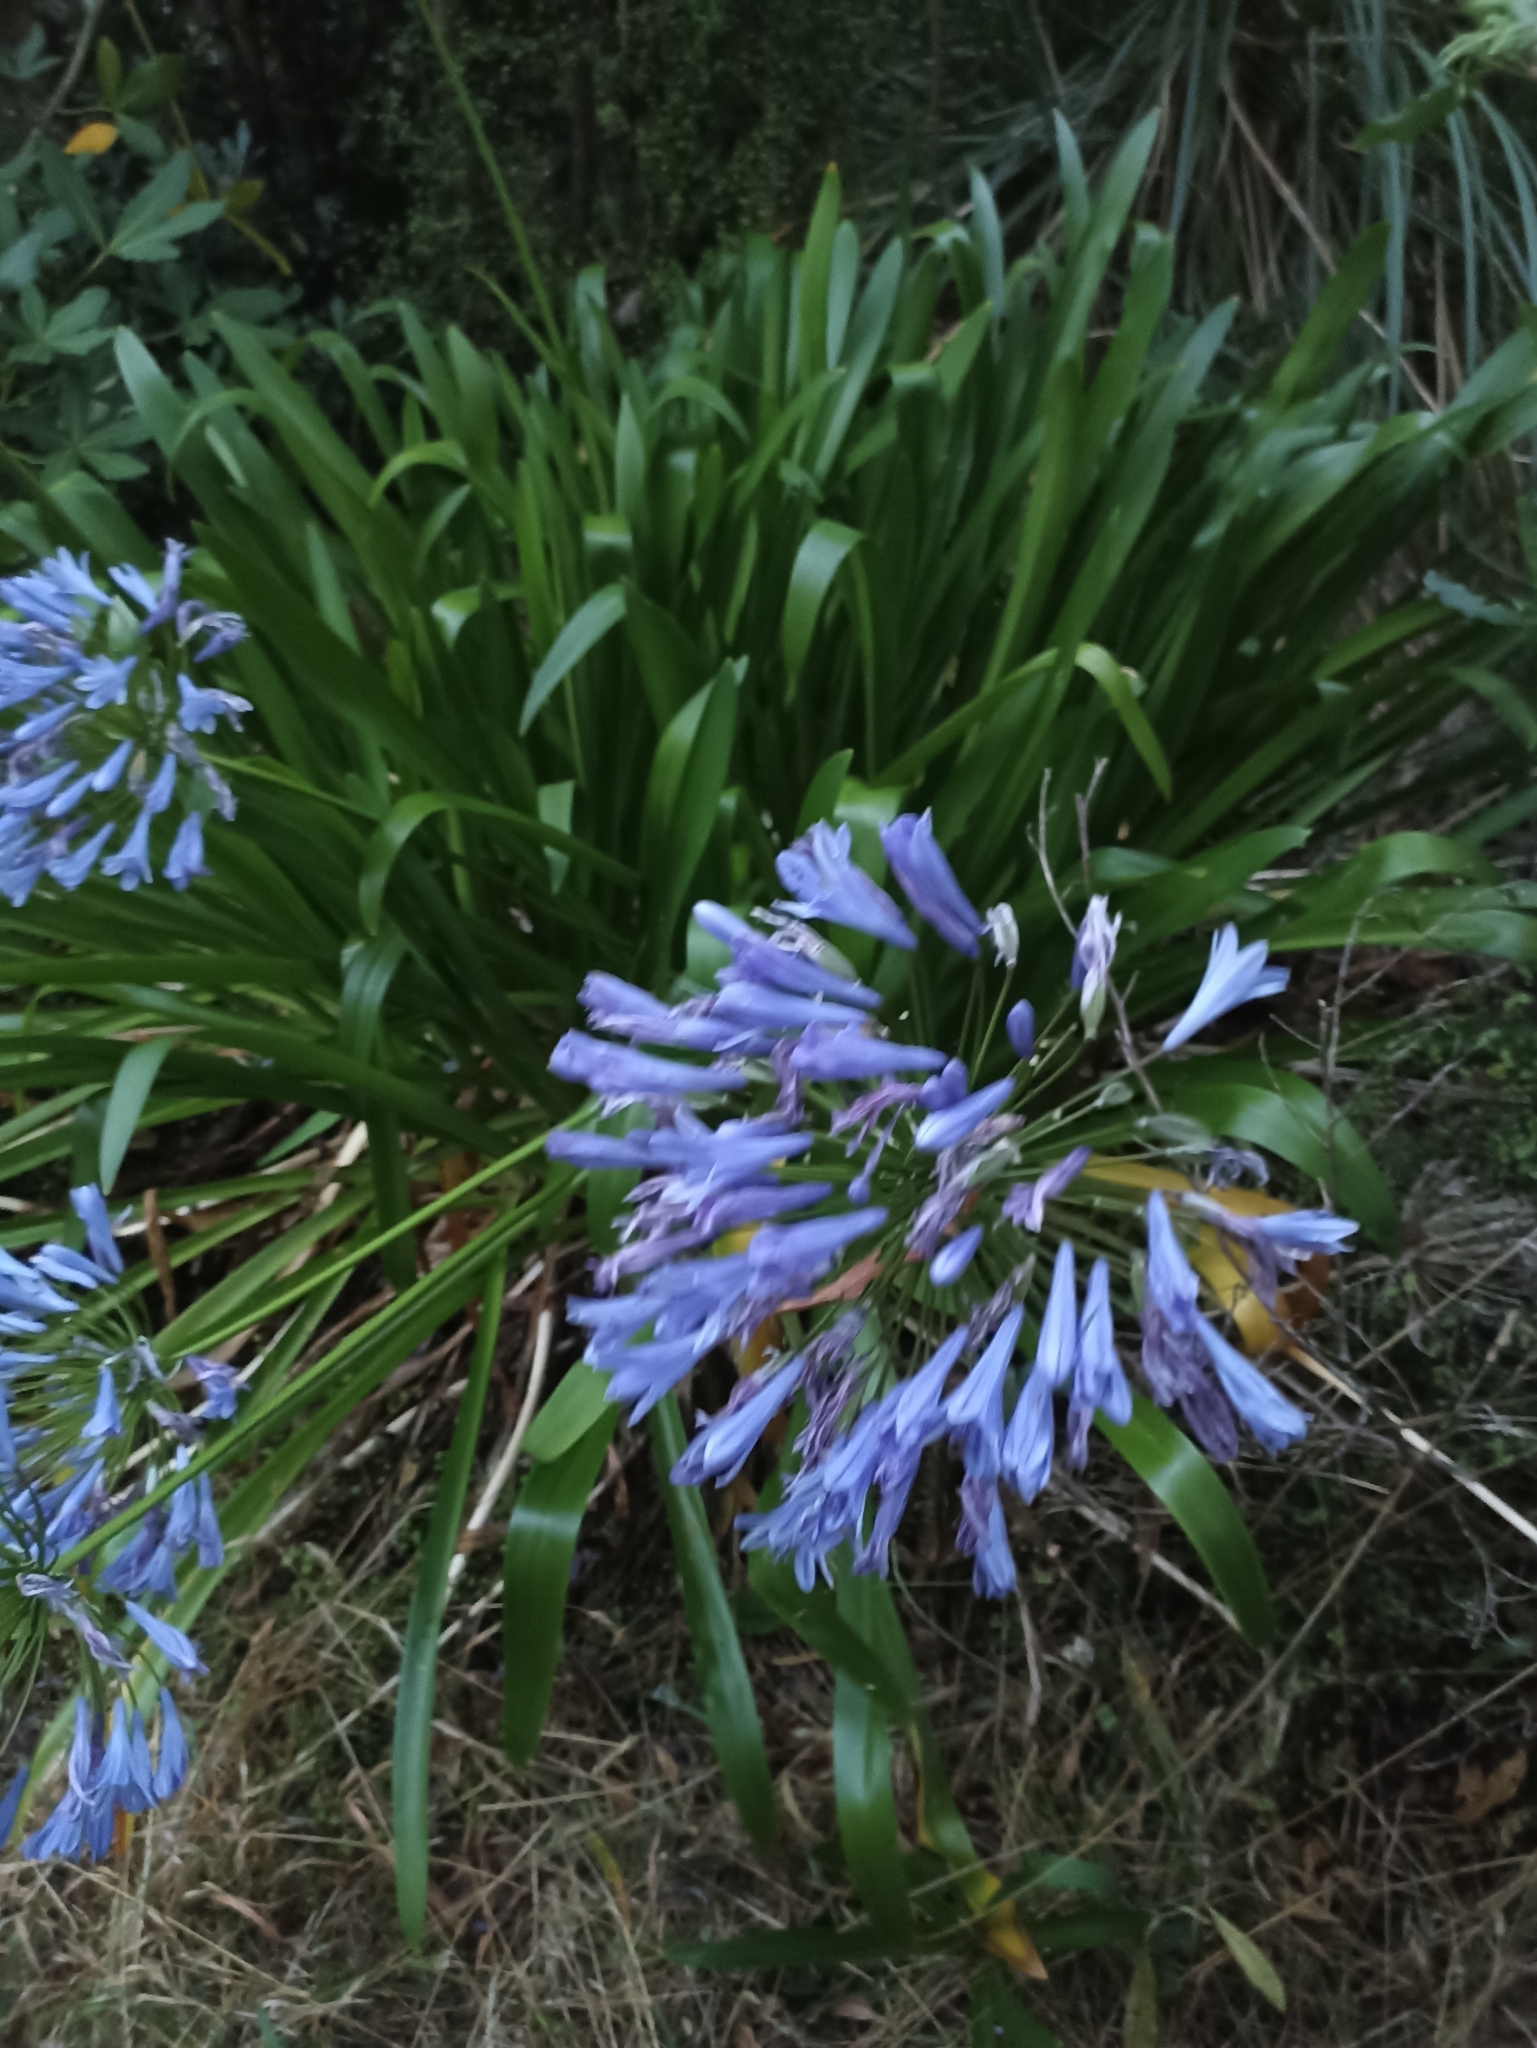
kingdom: Plantae
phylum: Tracheophyta
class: Liliopsida
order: Asparagales
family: Amaryllidaceae
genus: Agapanthus
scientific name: Agapanthus praecox
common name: African-lily
